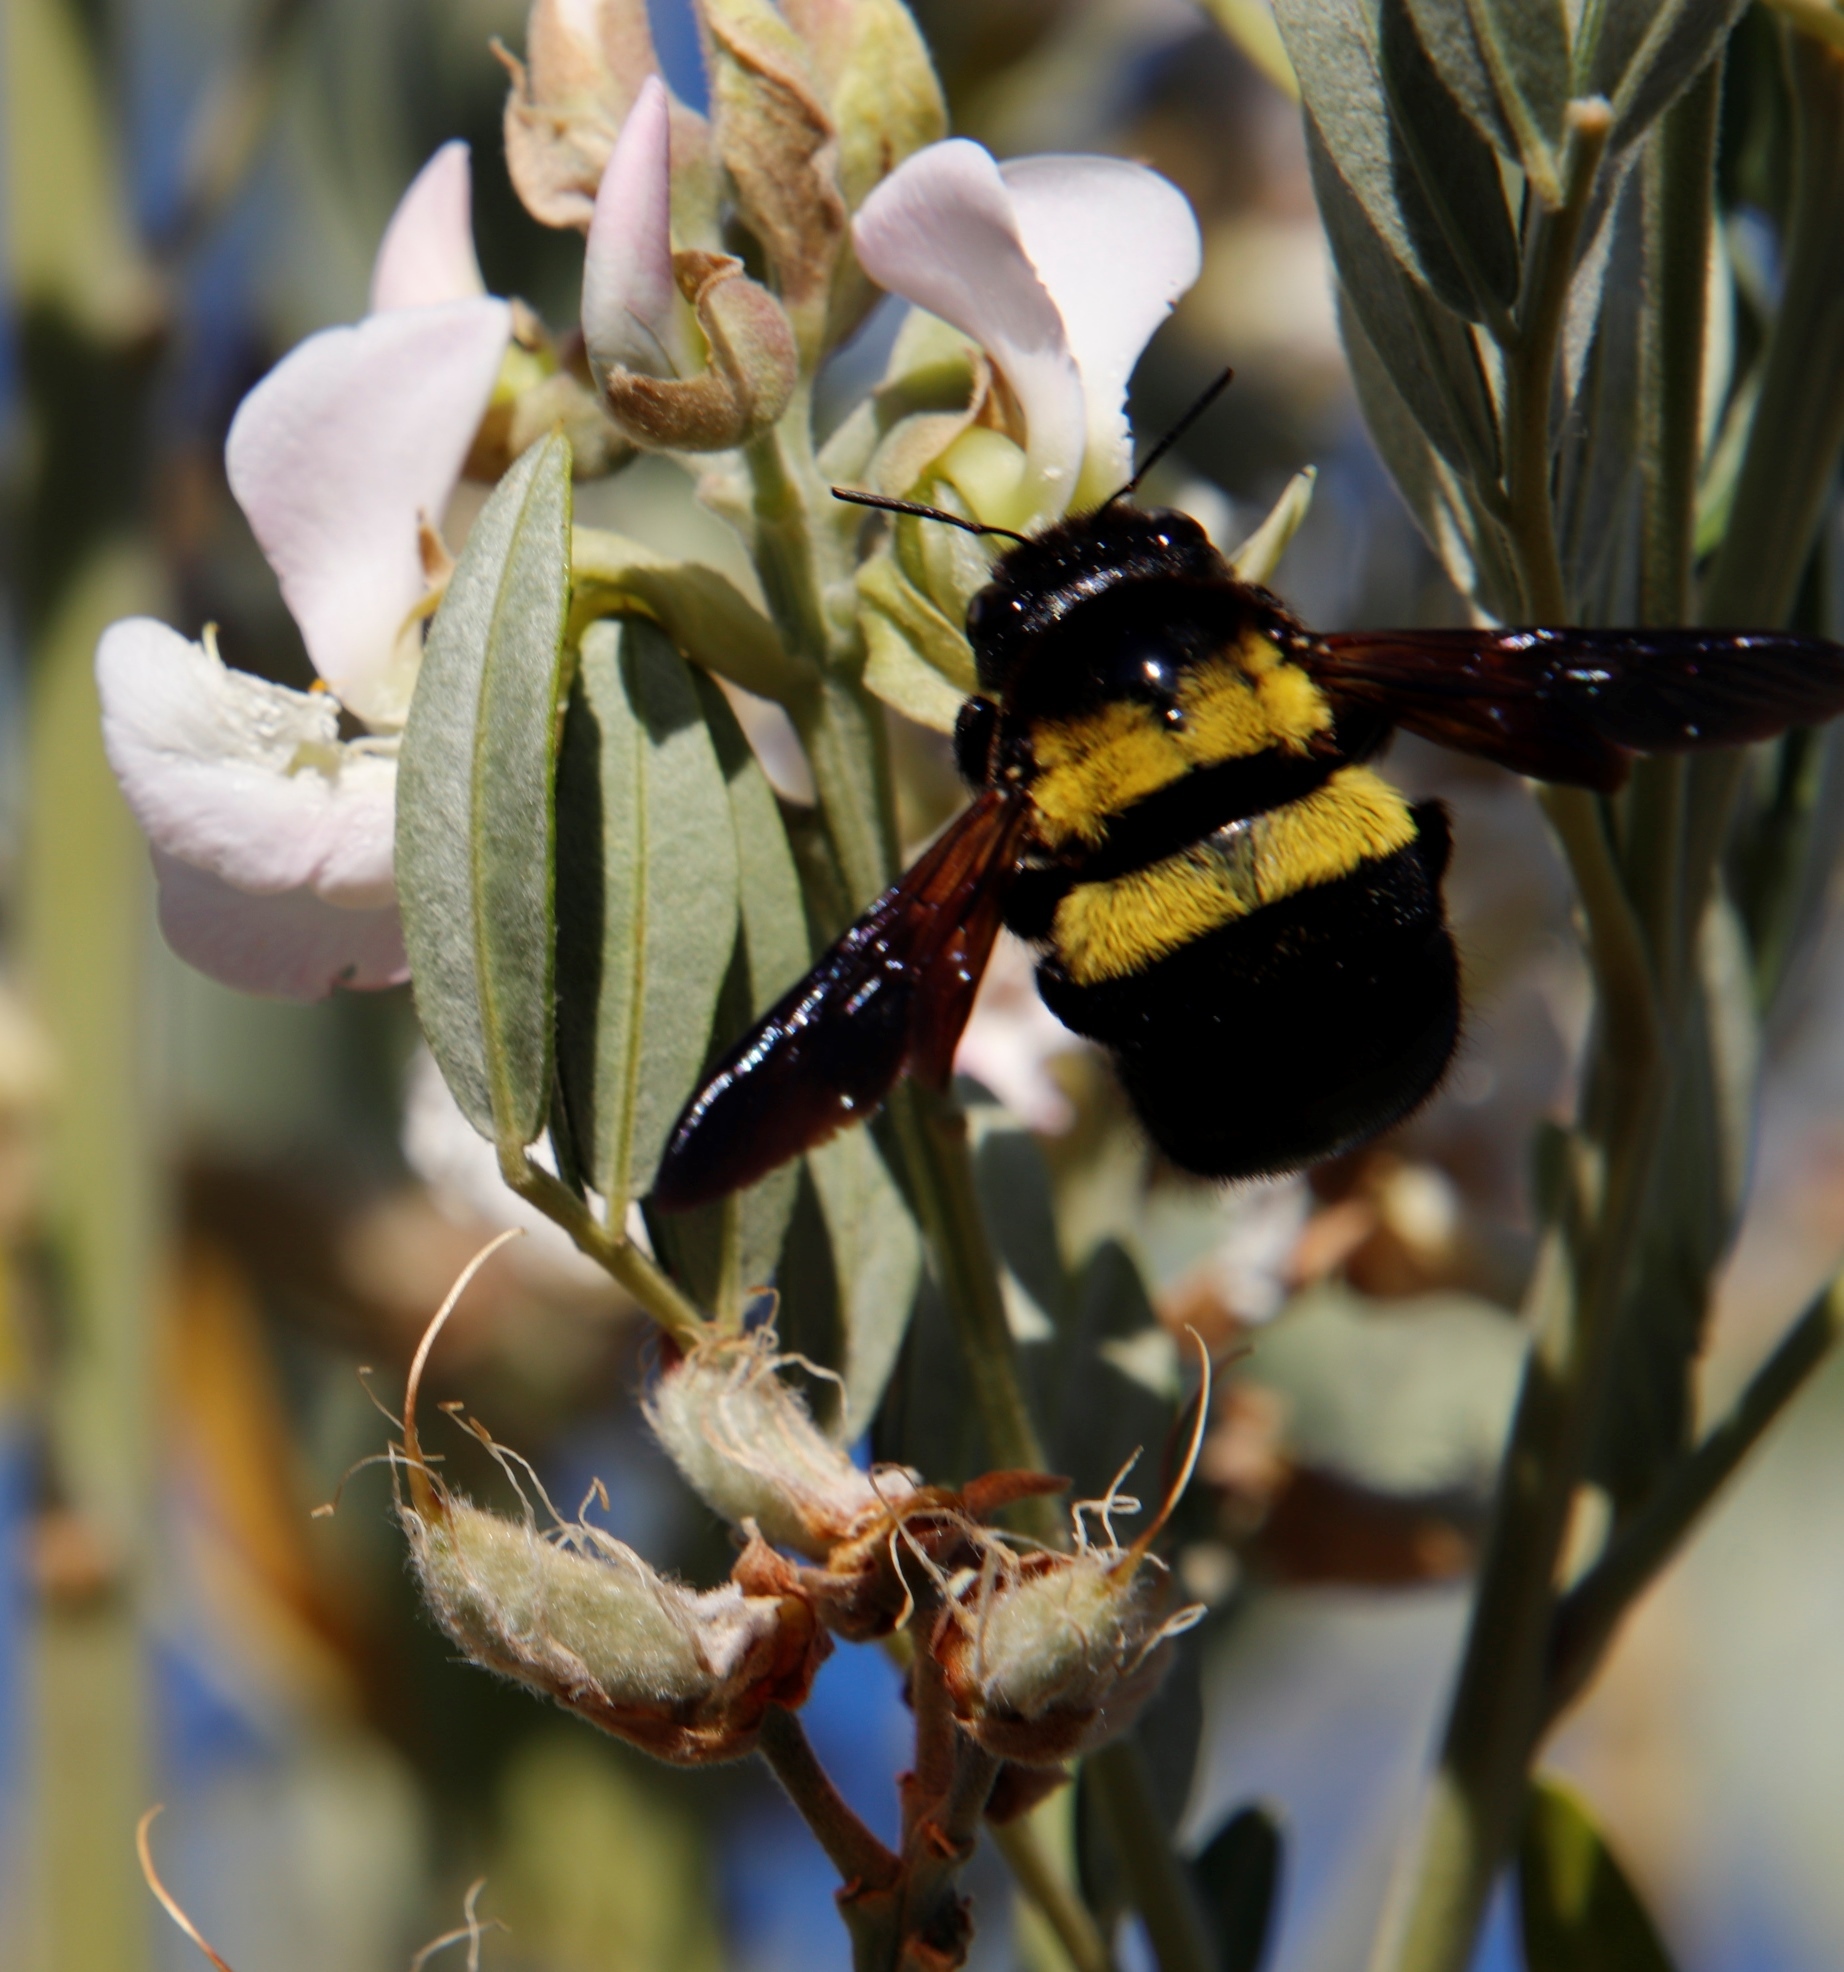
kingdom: Animalia
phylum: Arthropoda
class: Insecta
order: Hymenoptera
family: Apidae
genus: Xylocopa
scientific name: Xylocopa caffra
